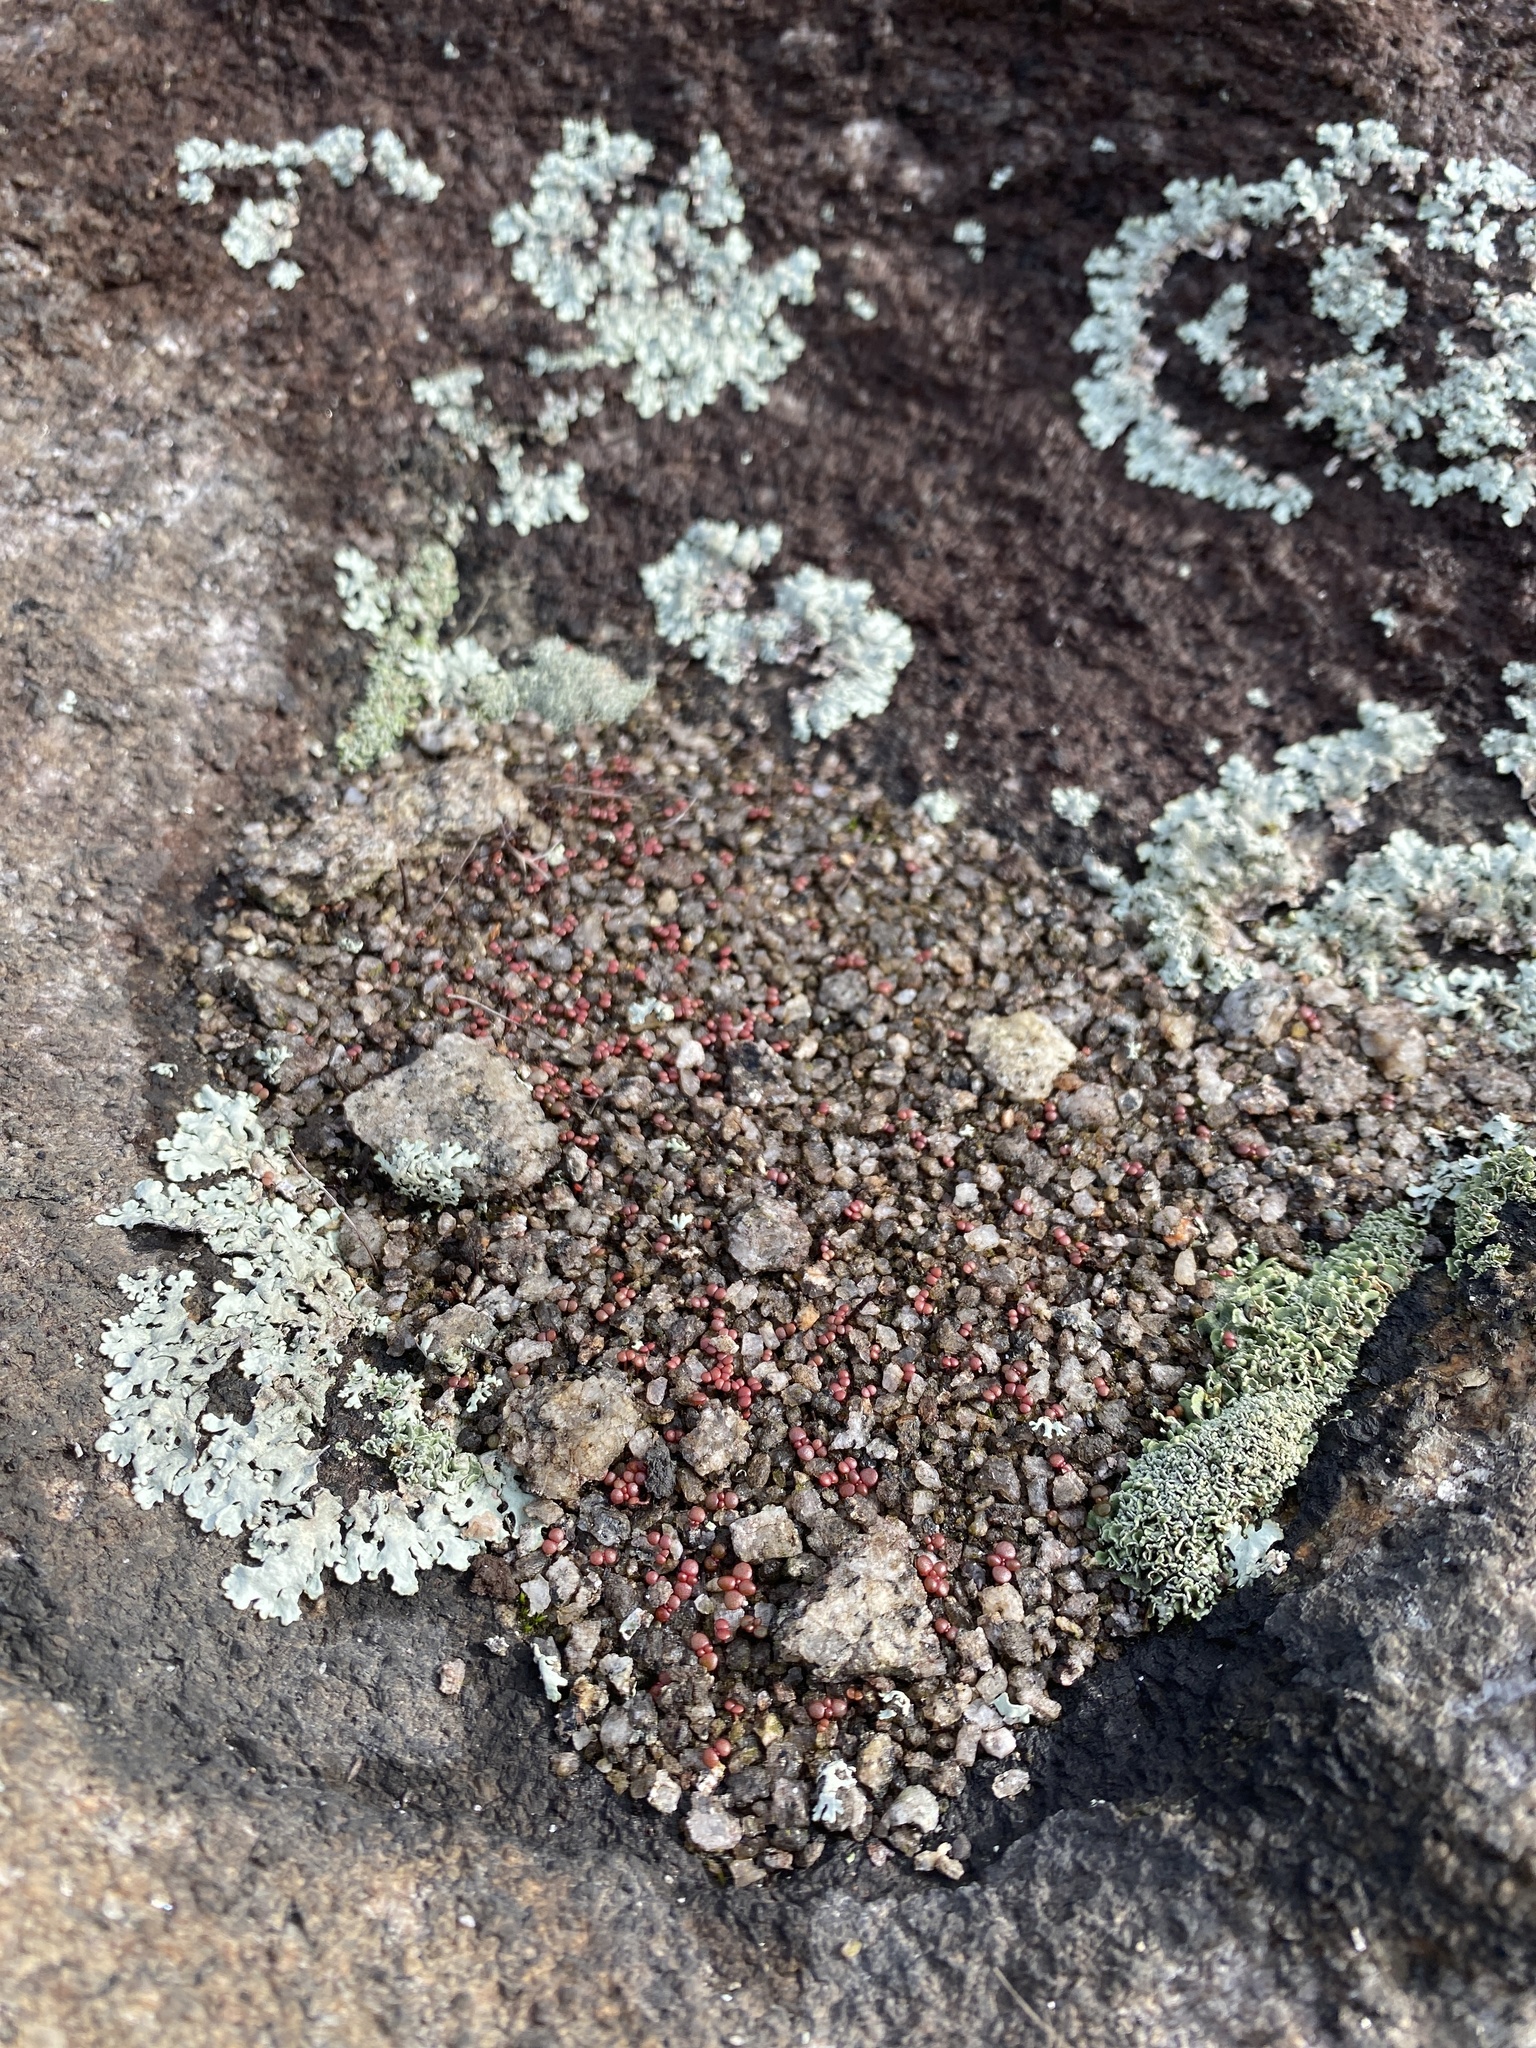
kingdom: Plantae
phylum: Tracheophyta
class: Magnoliopsida
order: Saxifragales
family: Crassulaceae
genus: Sedum
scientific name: Sedum smallii
